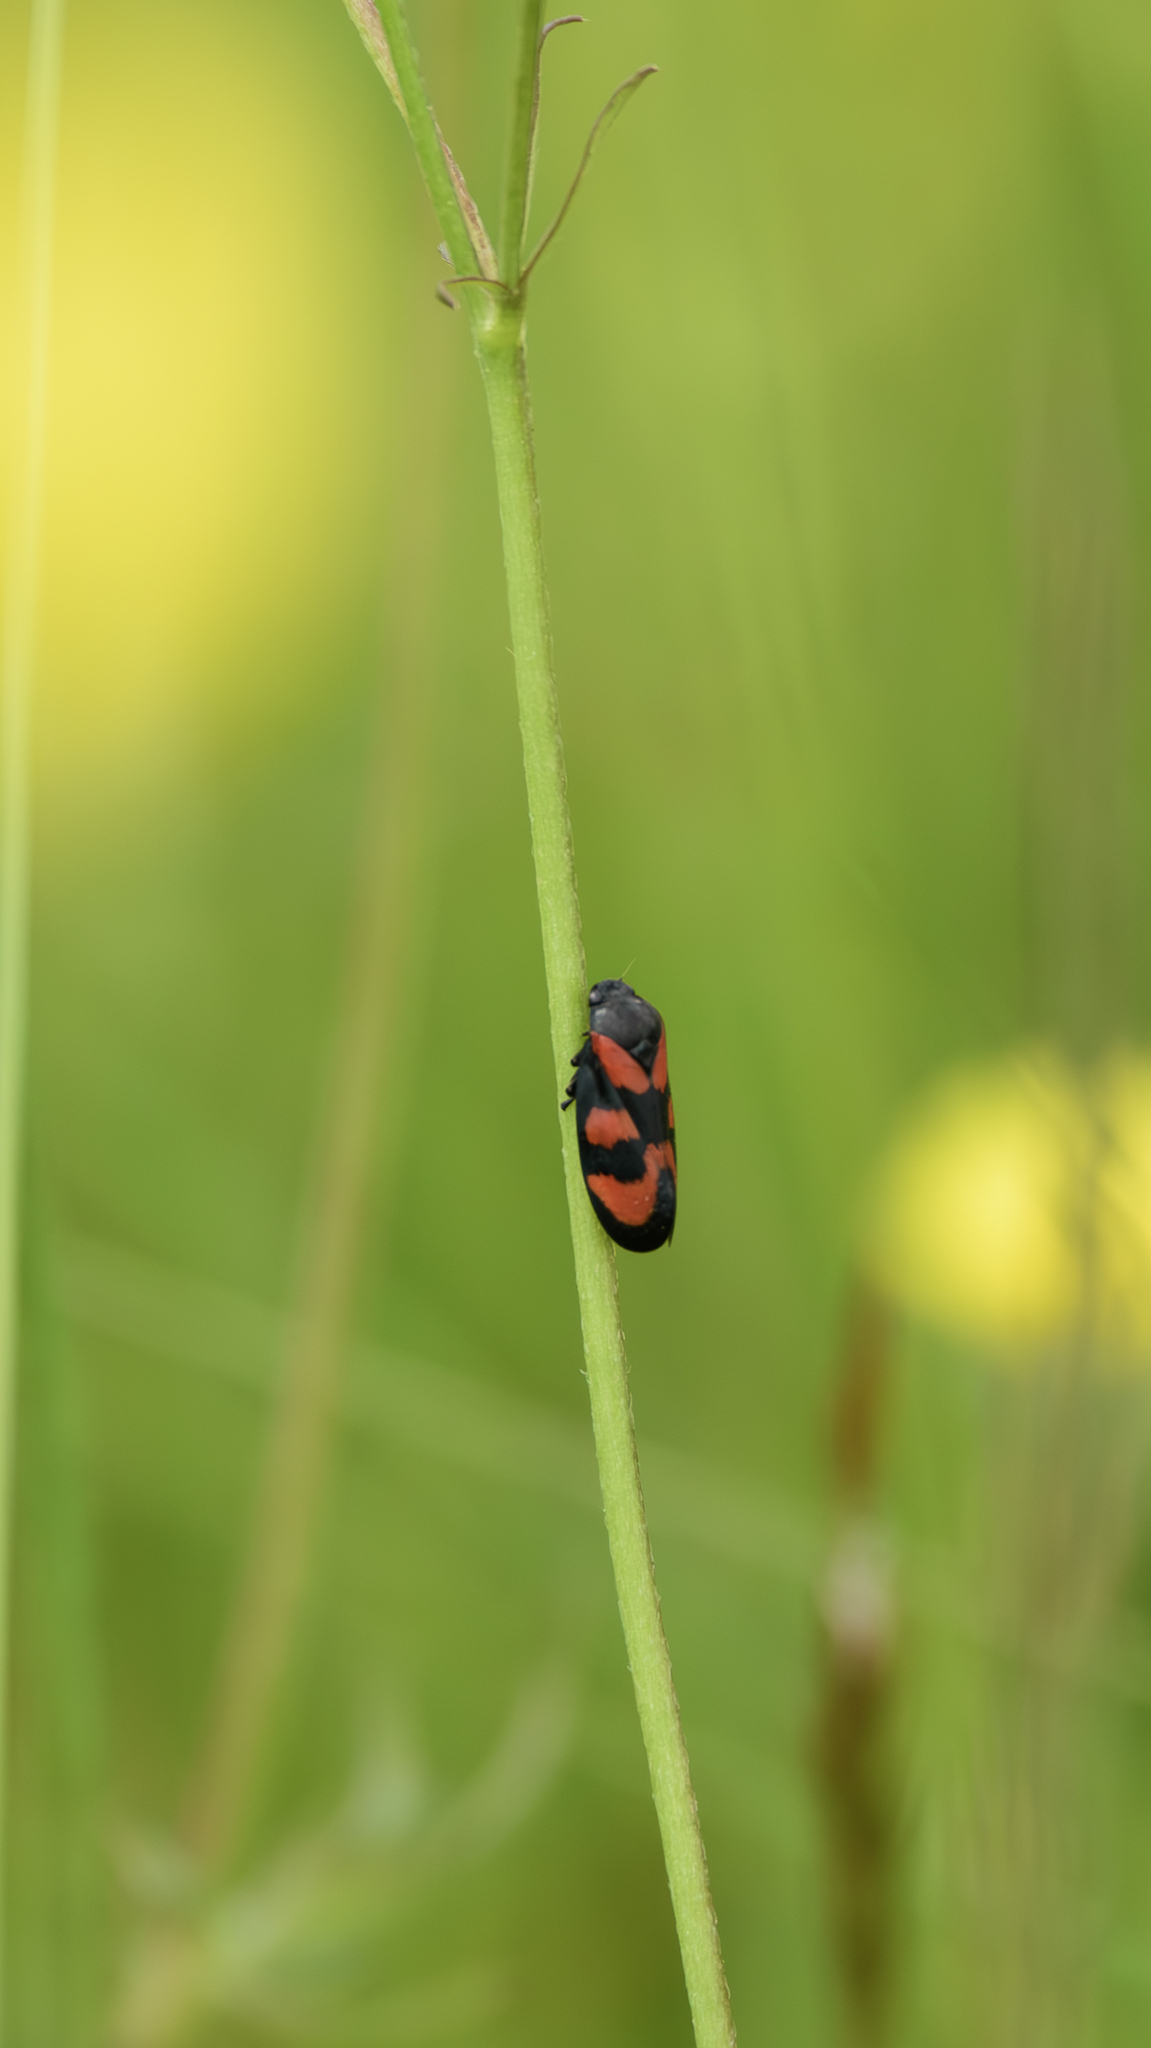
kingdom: Animalia
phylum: Arthropoda
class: Insecta
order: Hemiptera
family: Cercopidae
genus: Cercopis
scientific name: Cercopis vulnerata
